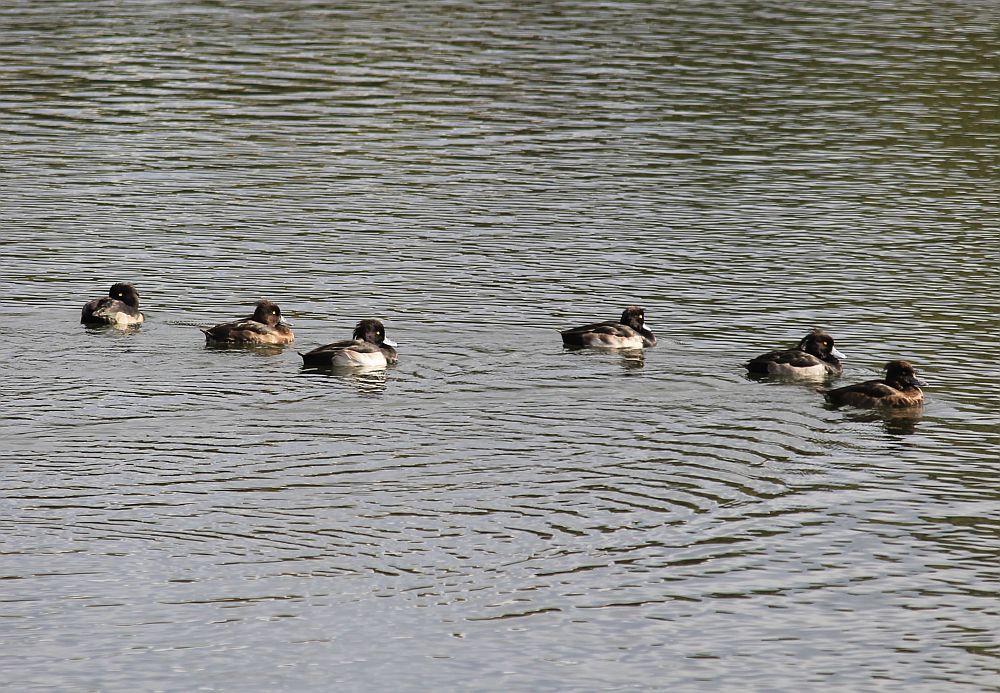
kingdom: Animalia
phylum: Chordata
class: Aves
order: Anseriformes
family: Anatidae
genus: Aythya
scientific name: Aythya fuligula
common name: Tufted duck
